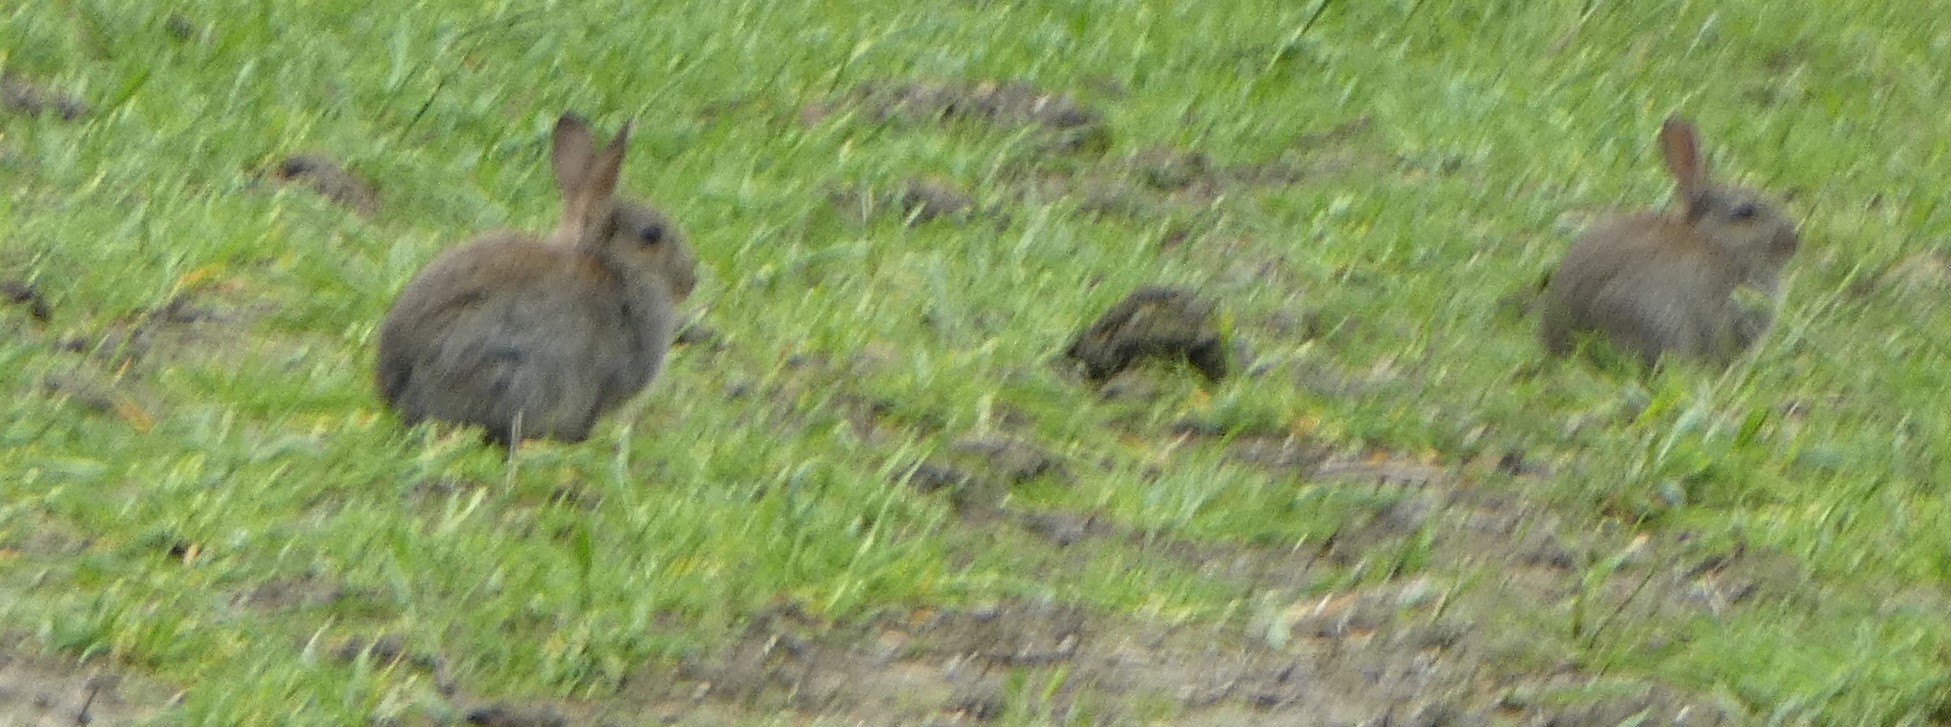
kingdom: Animalia
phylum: Chordata
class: Mammalia
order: Lagomorpha
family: Leporidae
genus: Oryctolagus
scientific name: Oryctolagus cuniculus
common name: European rabbit
